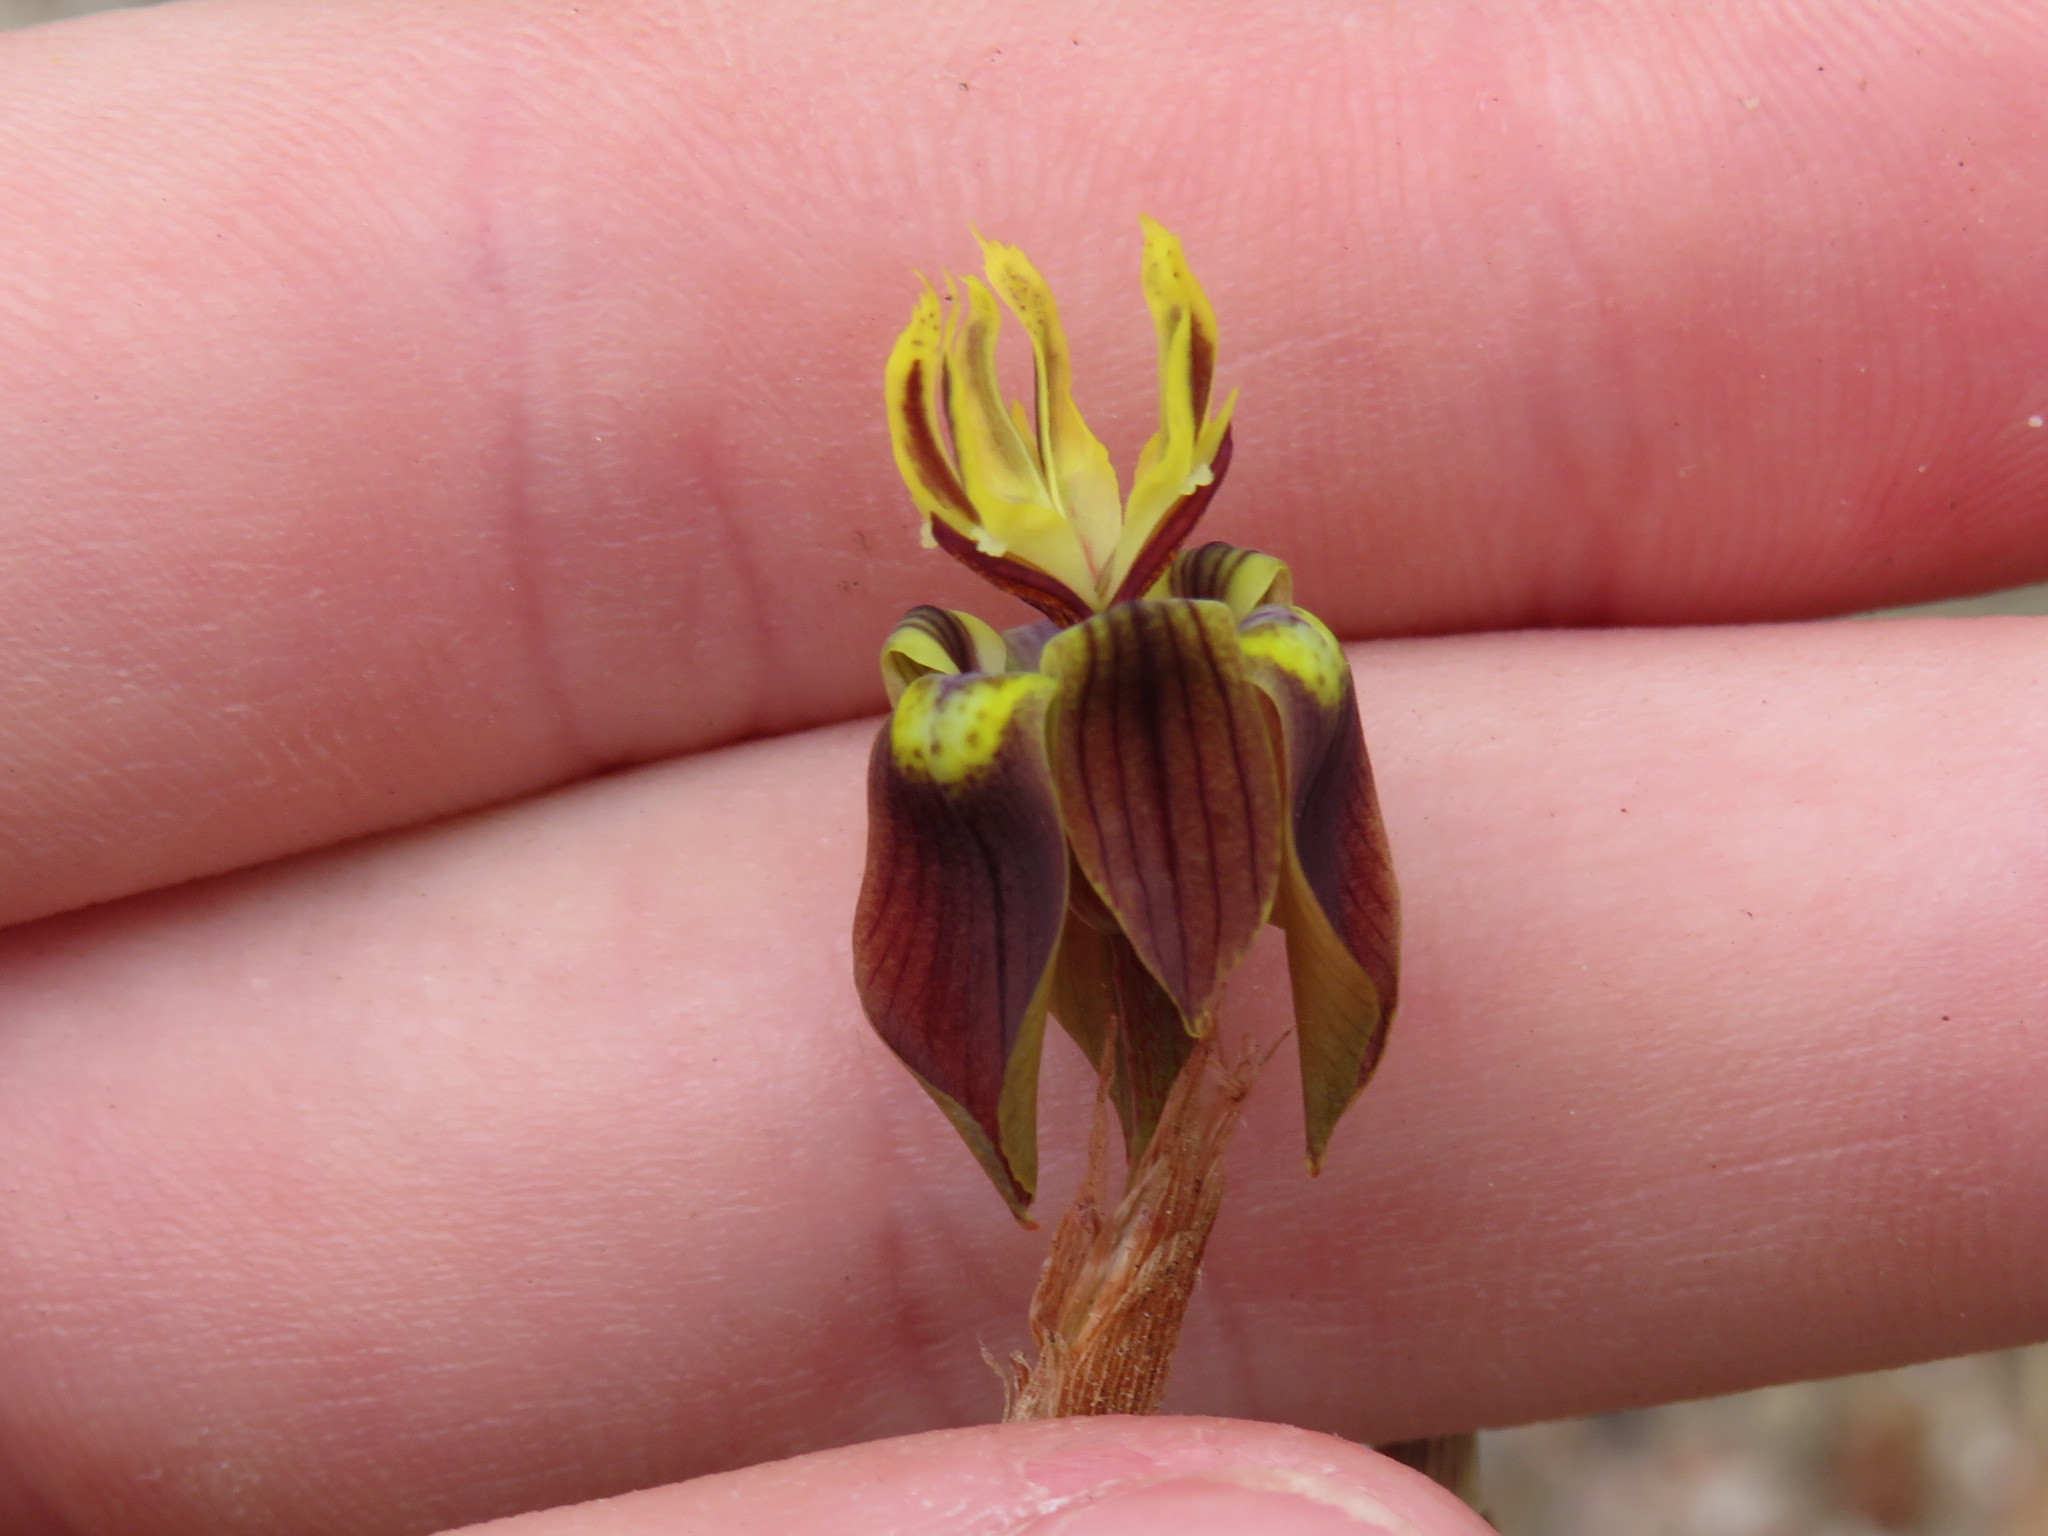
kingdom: Plantae
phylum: Tracheophyta
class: Liliopsida
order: Asparagales
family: Iridaceae
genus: Moraea
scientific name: Moraea inconspicua
